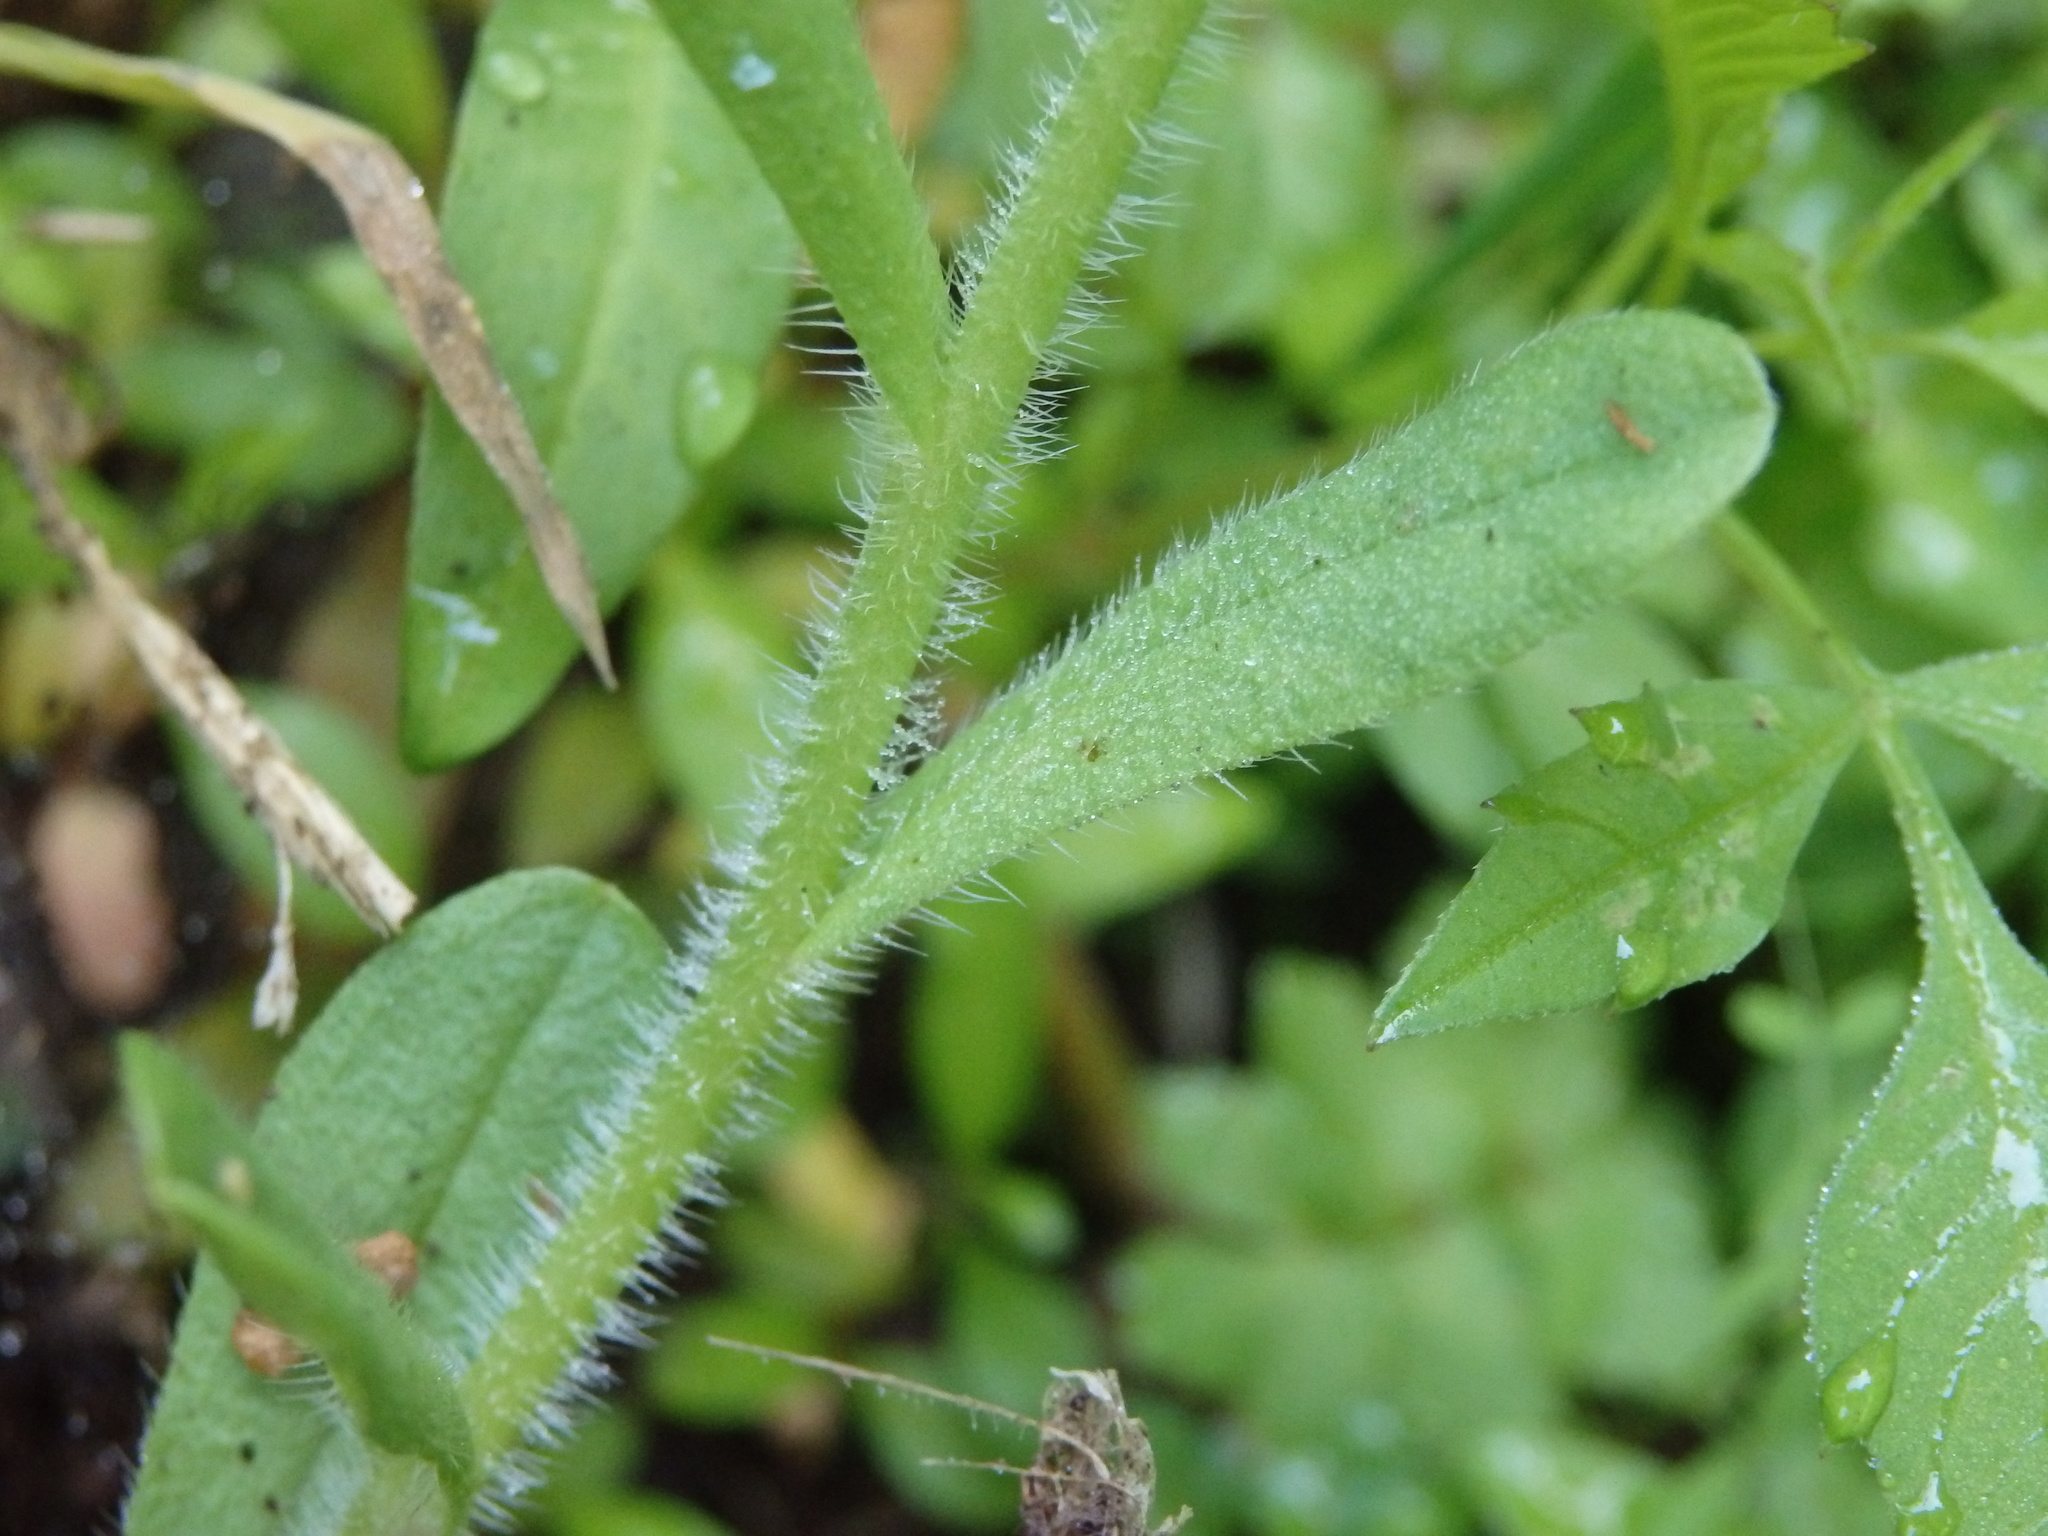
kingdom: Plantae
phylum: Tracheophyta
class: Magnoliopsida
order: Boraginales
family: Boraginaceae
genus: Myosotis
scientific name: Myosotis welwitschii
